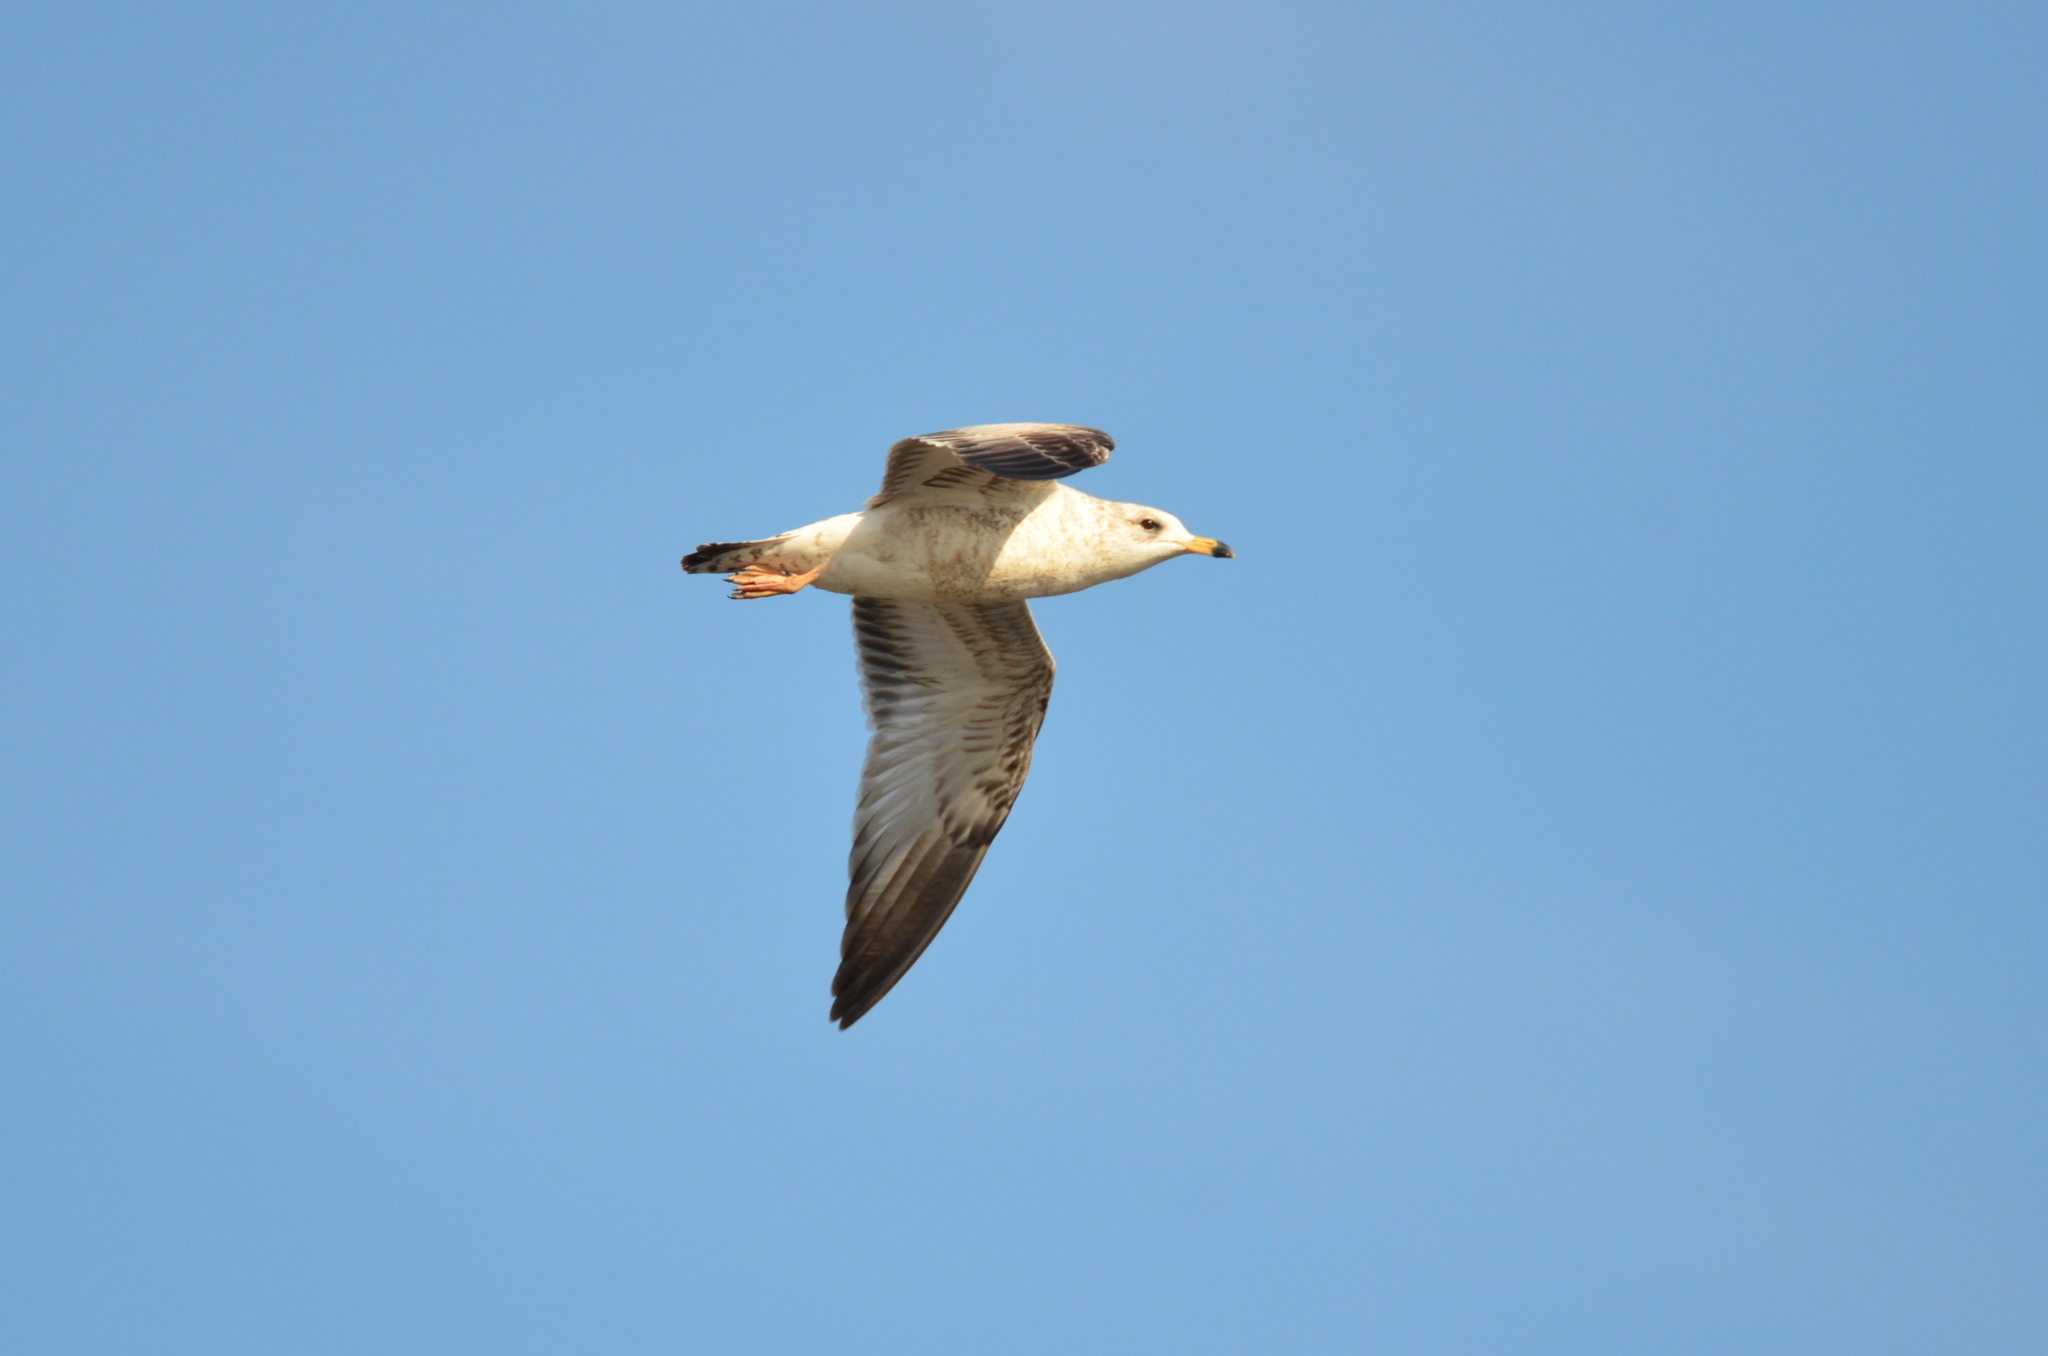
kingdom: Animalia
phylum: Chordata
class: Aves
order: Charadriiformes
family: Laridae
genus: Larus
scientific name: Larus delawarensis
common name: Ring-billed gull
